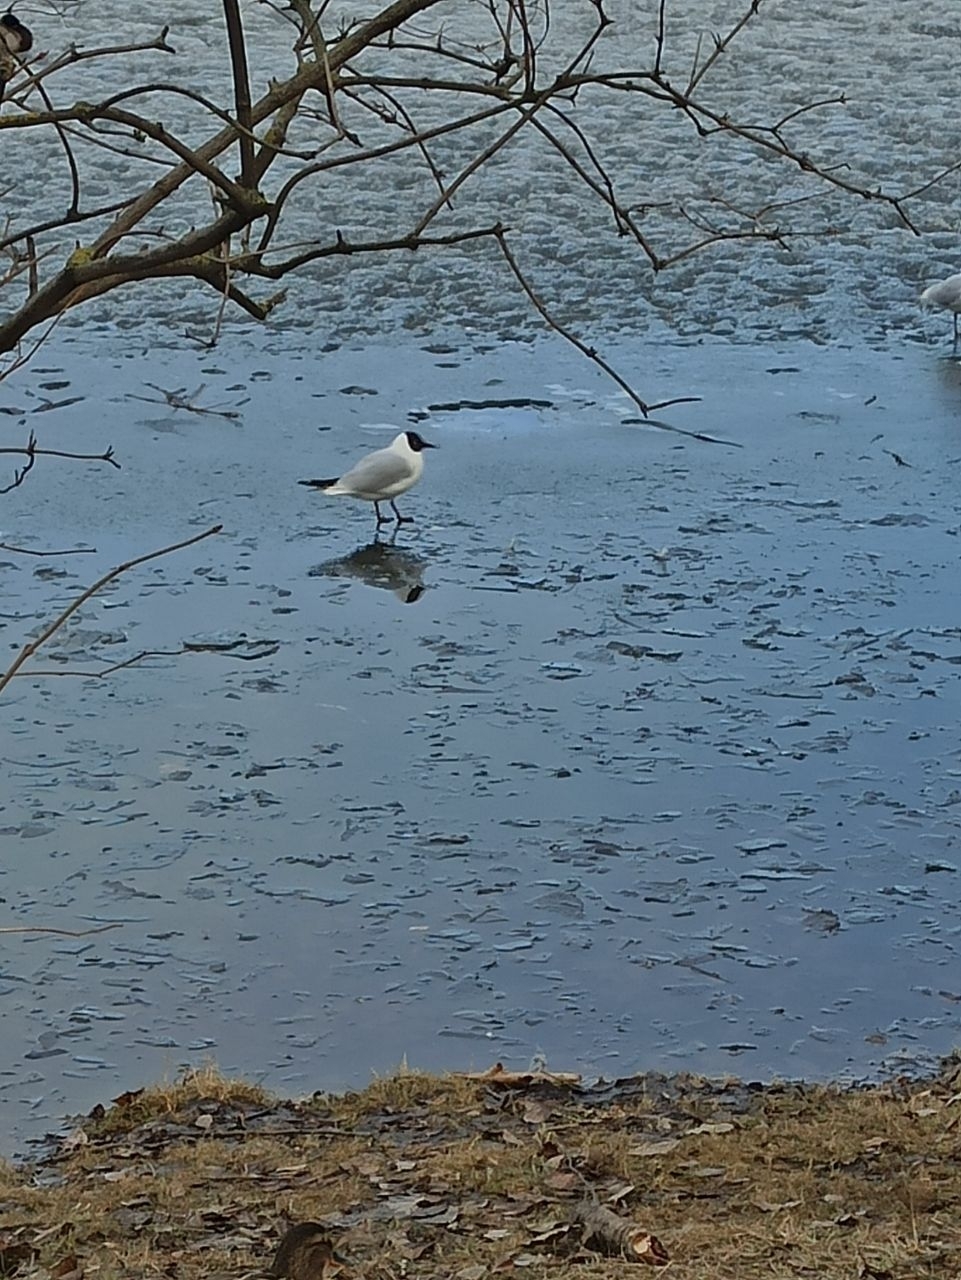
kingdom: Animalia
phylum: Chordata
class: Aves
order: Charadriiformes
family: Laridae
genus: Chroicocephalus
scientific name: Chroicocephalus ridibundus
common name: Black-headed gull
